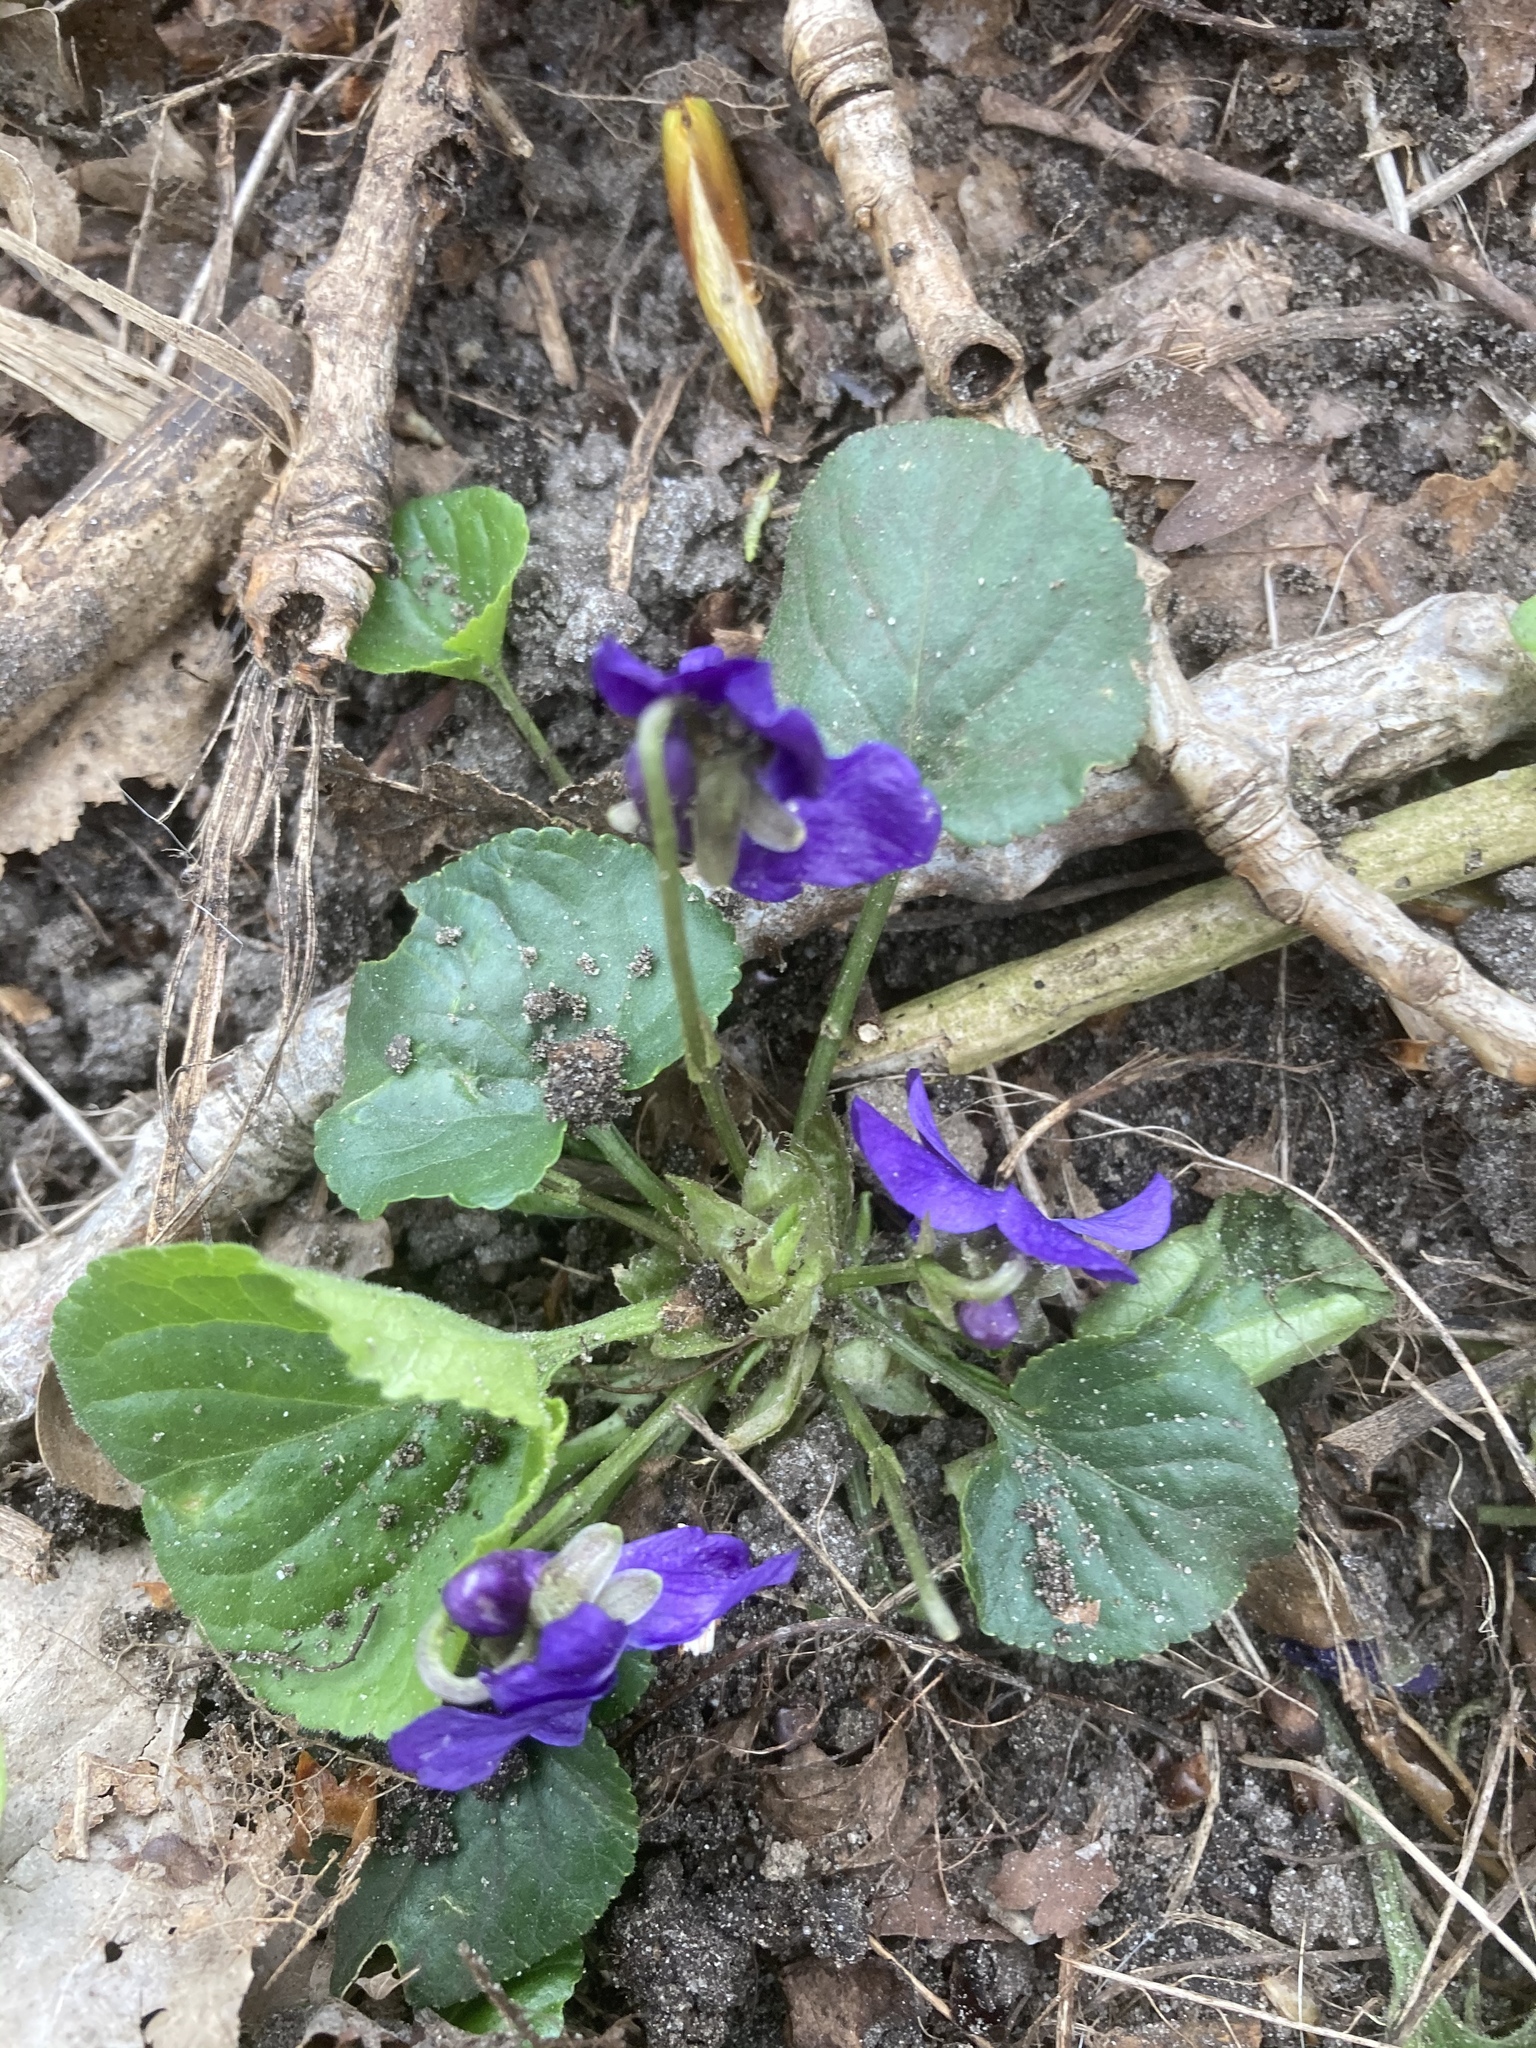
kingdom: Plantae
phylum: Tracheophyta
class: Magnoliopsida
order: Malpighiales
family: Violaceae
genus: Viola
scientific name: Viola odorata
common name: Sweet violet
